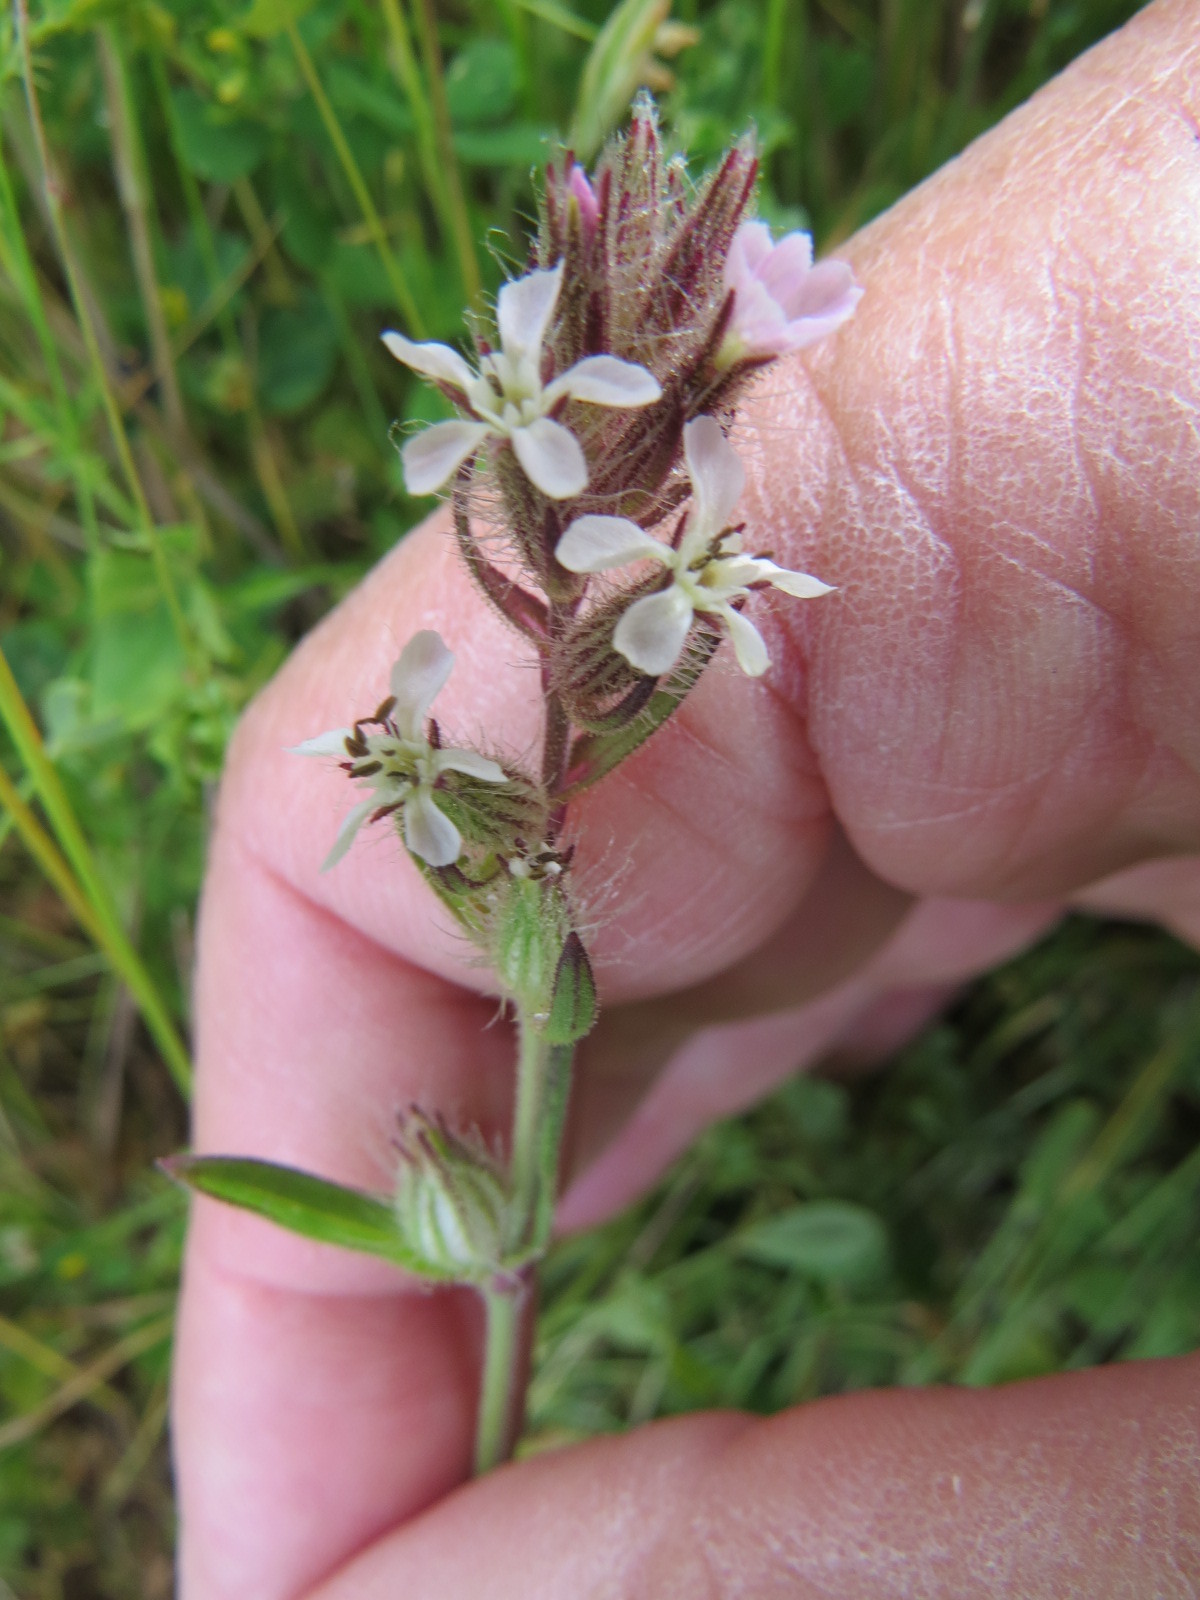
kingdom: Plantae
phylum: Tracheophyta
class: Magnoliopsida
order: Caryophyllales
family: Caryophyllaceae
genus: Silene
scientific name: Silene gallica
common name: Small-flowered catchfly
